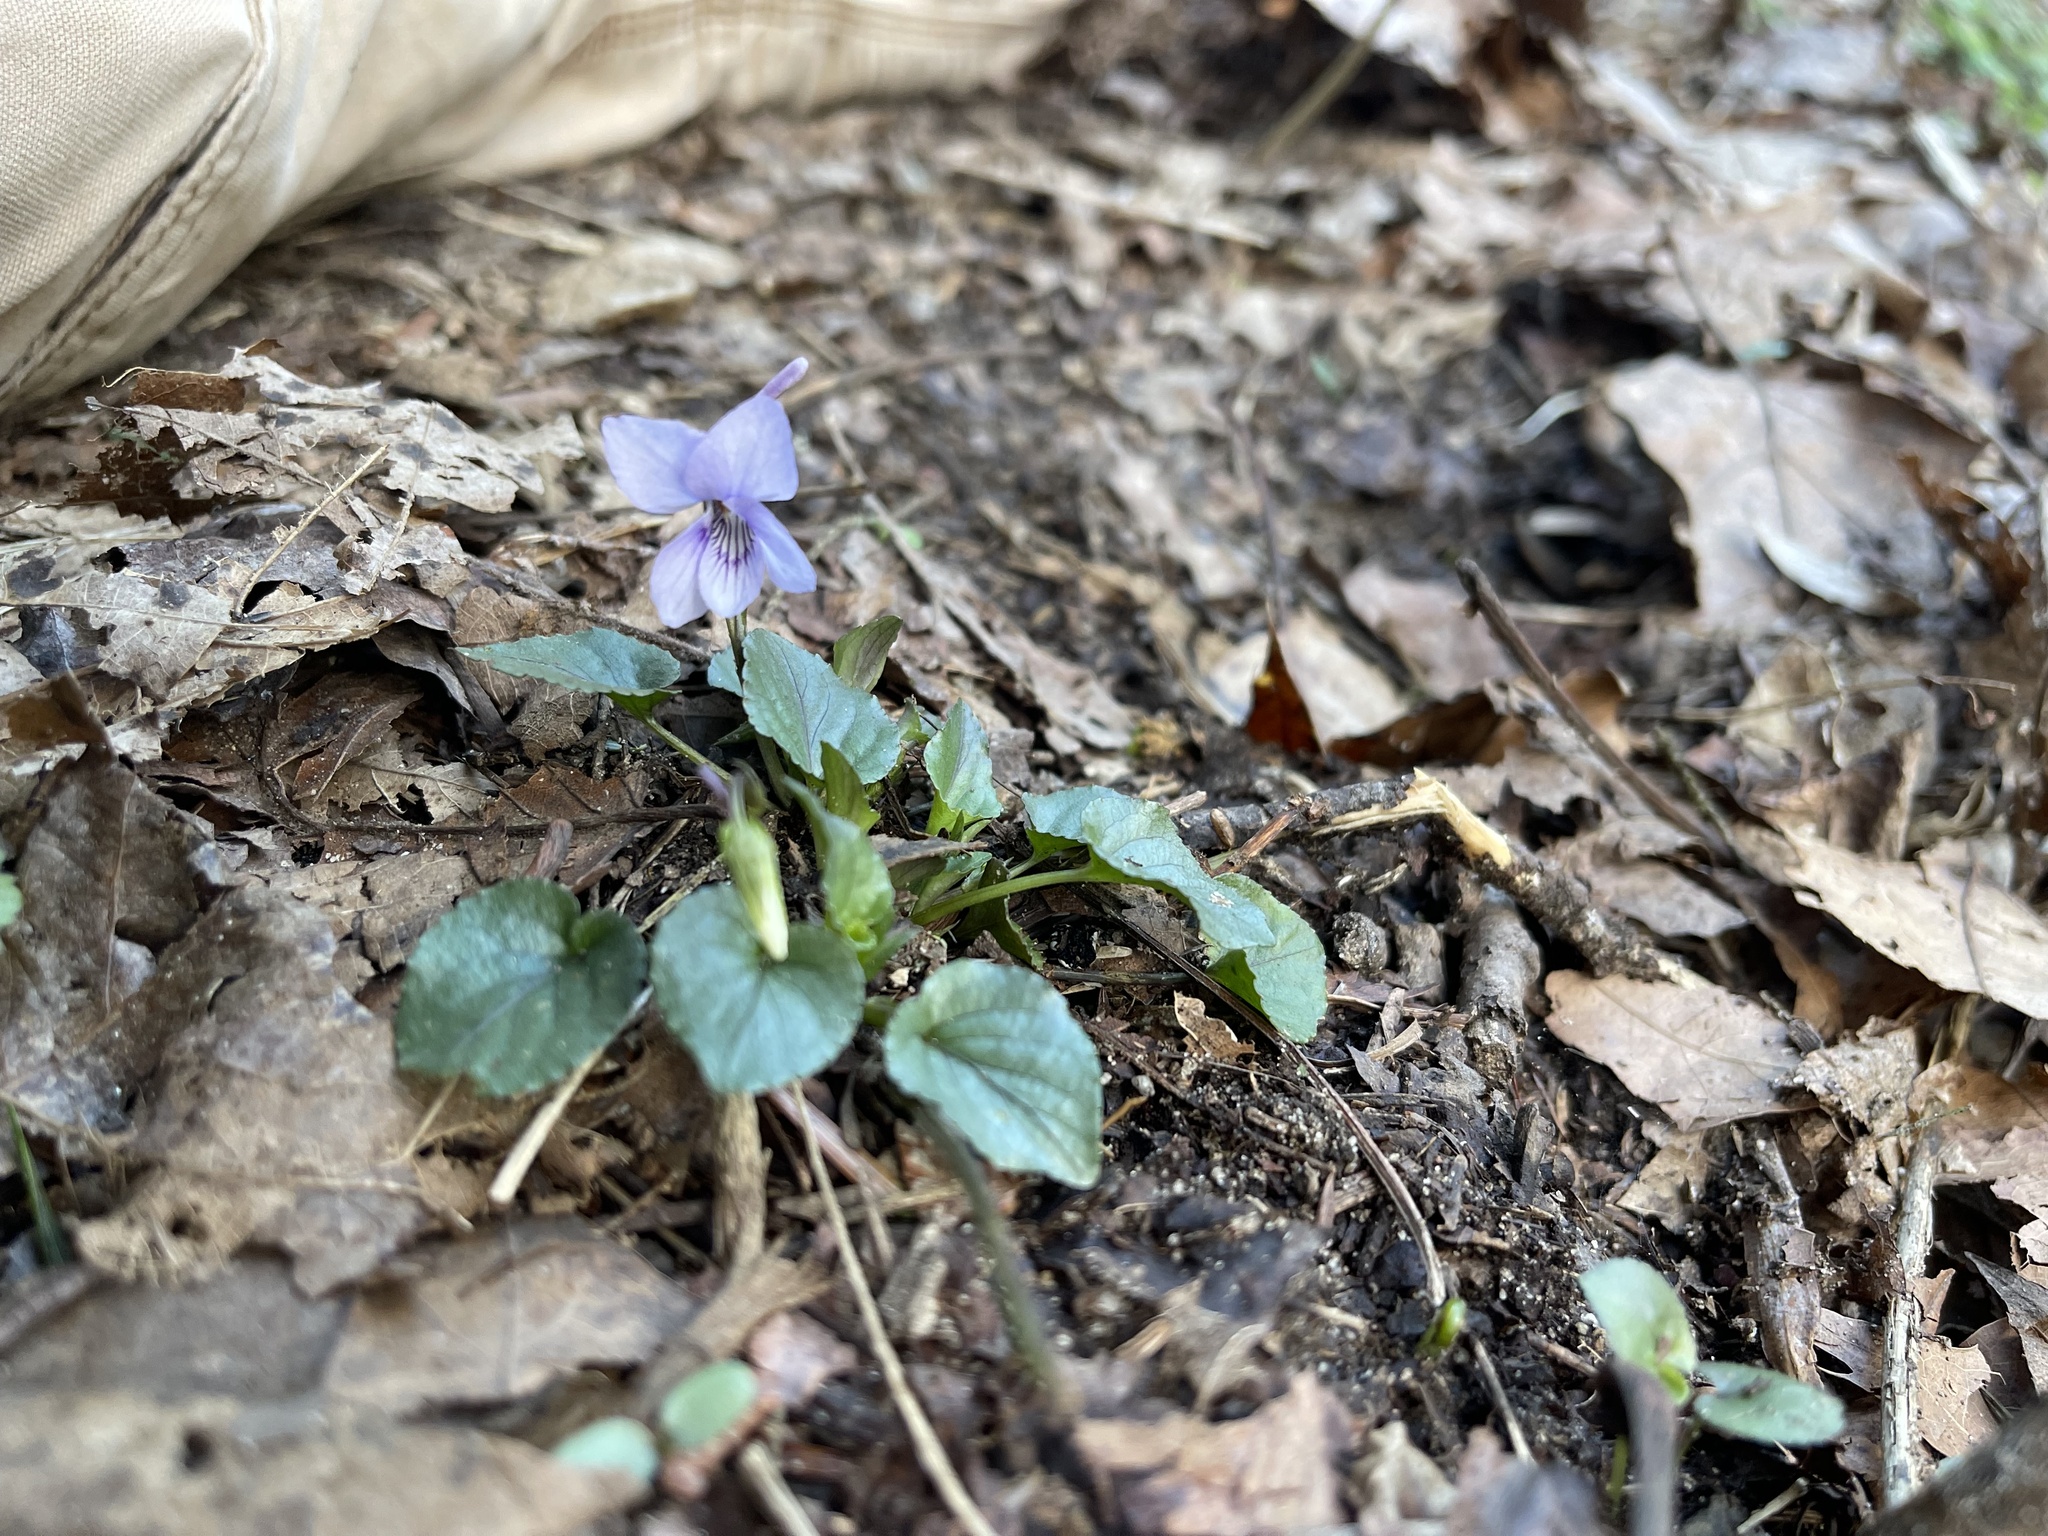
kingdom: Plantae
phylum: Tracheophyta
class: Magnoliopsida
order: Malpighiales
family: Violaceae
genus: Viola
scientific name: Viola rostrata
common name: Long-spur violet
